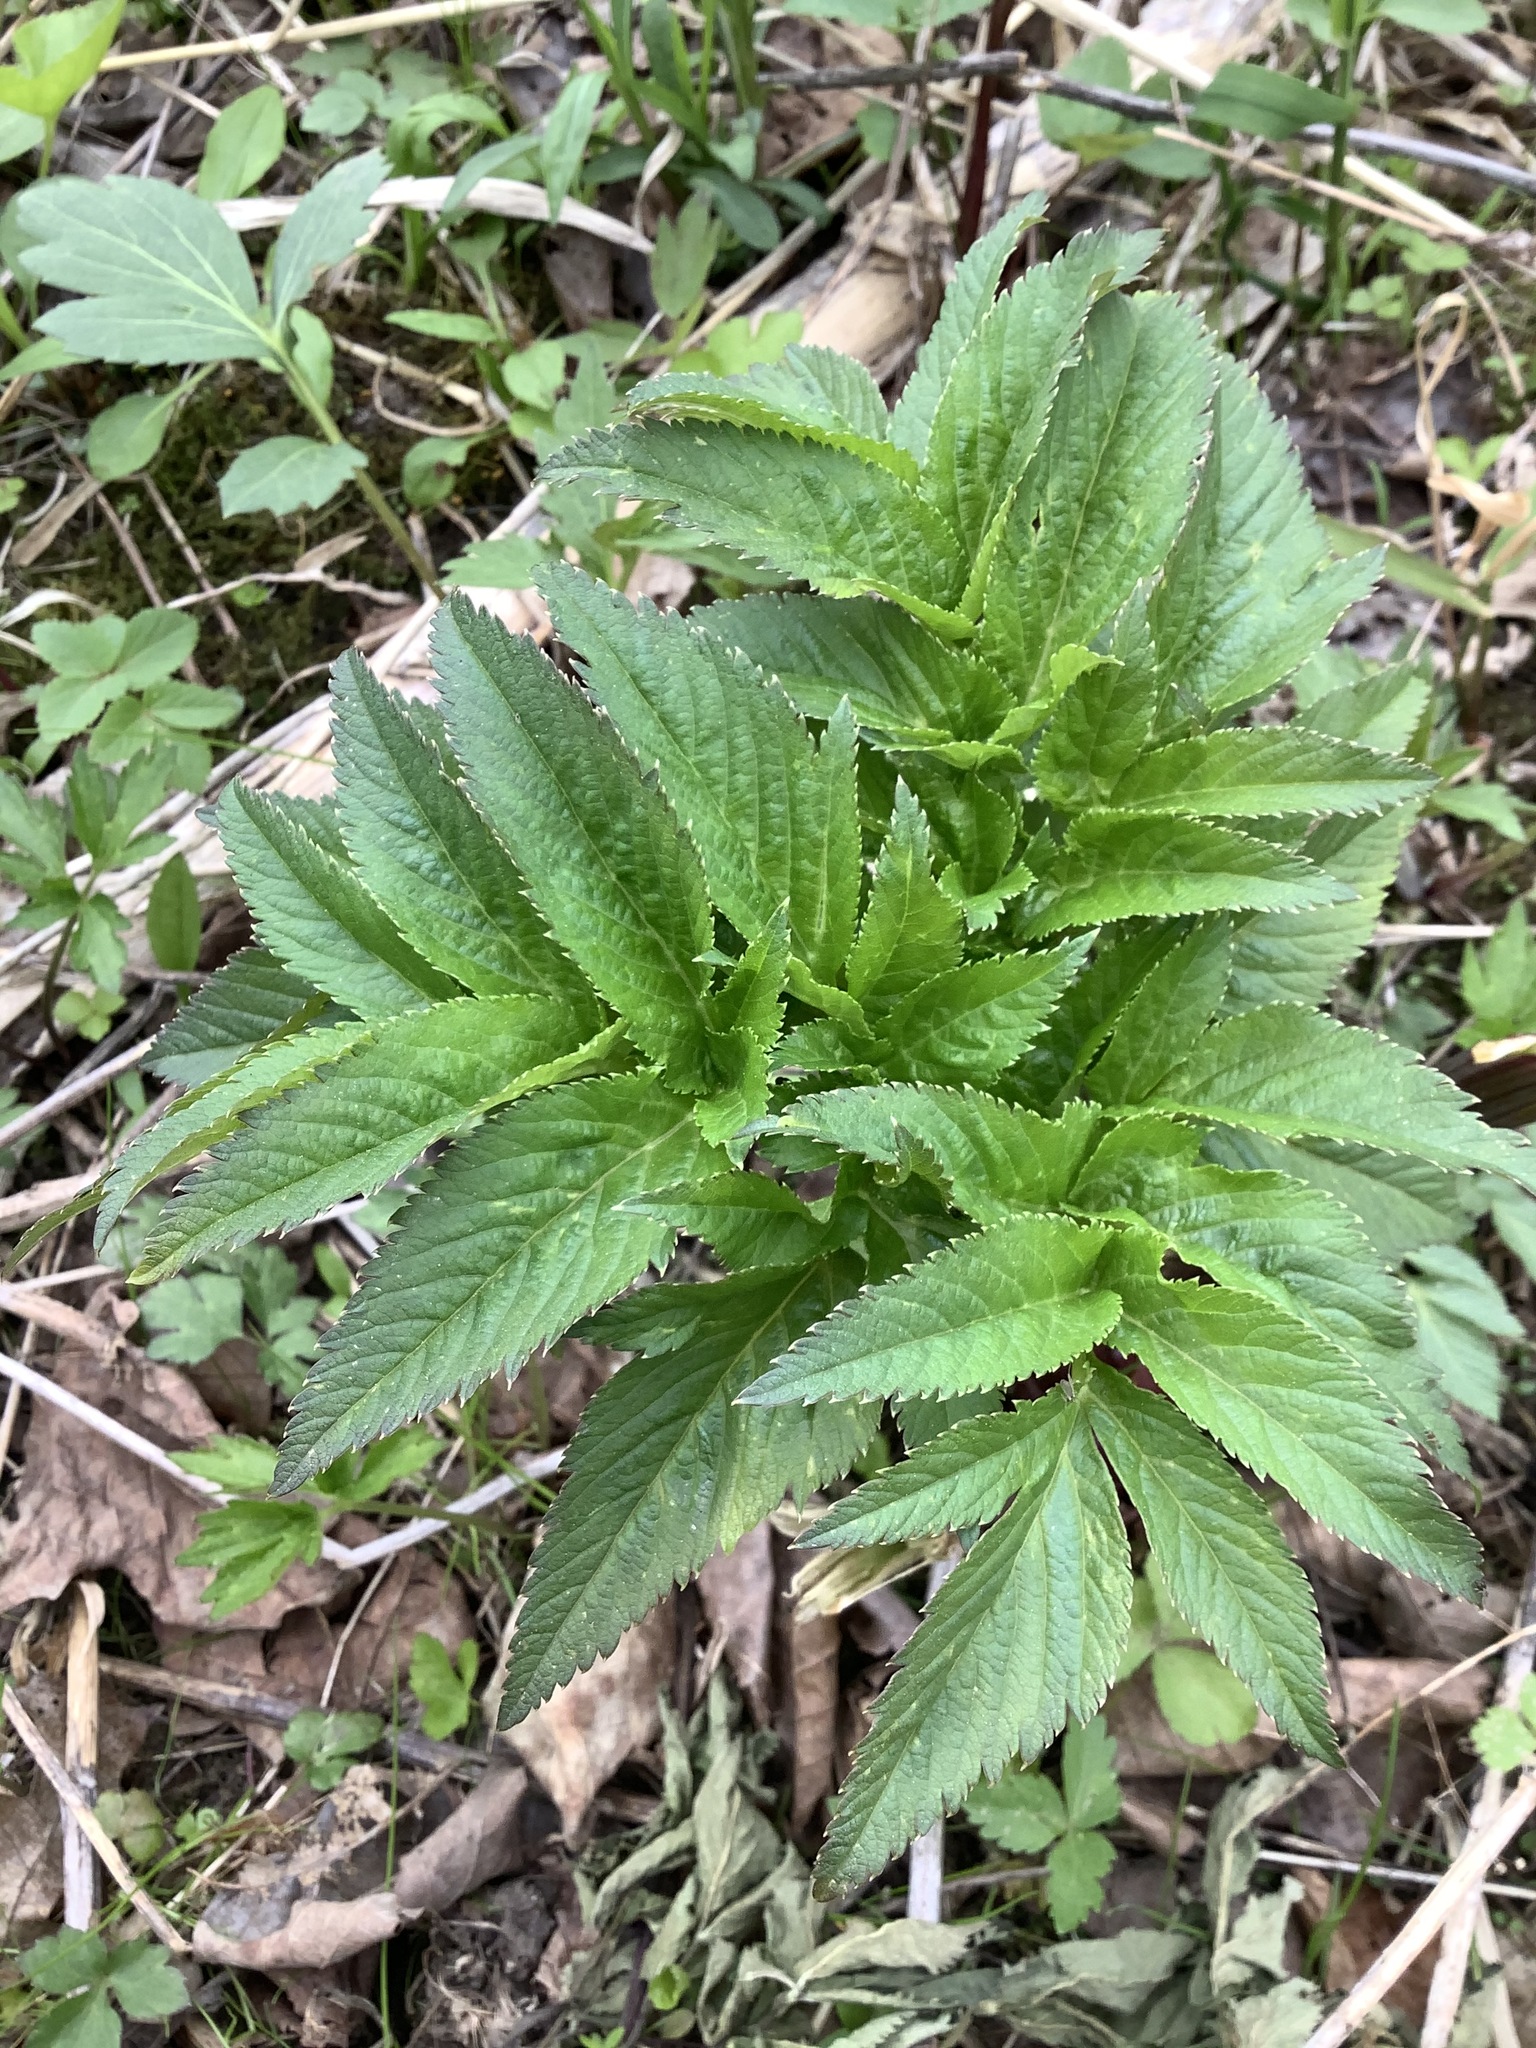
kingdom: Plantae
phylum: Tracheophyta
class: Magnoliopsida
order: Apiales
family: Apiaceae
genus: Angelica
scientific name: Angelica atropurpurea
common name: Great angelica
